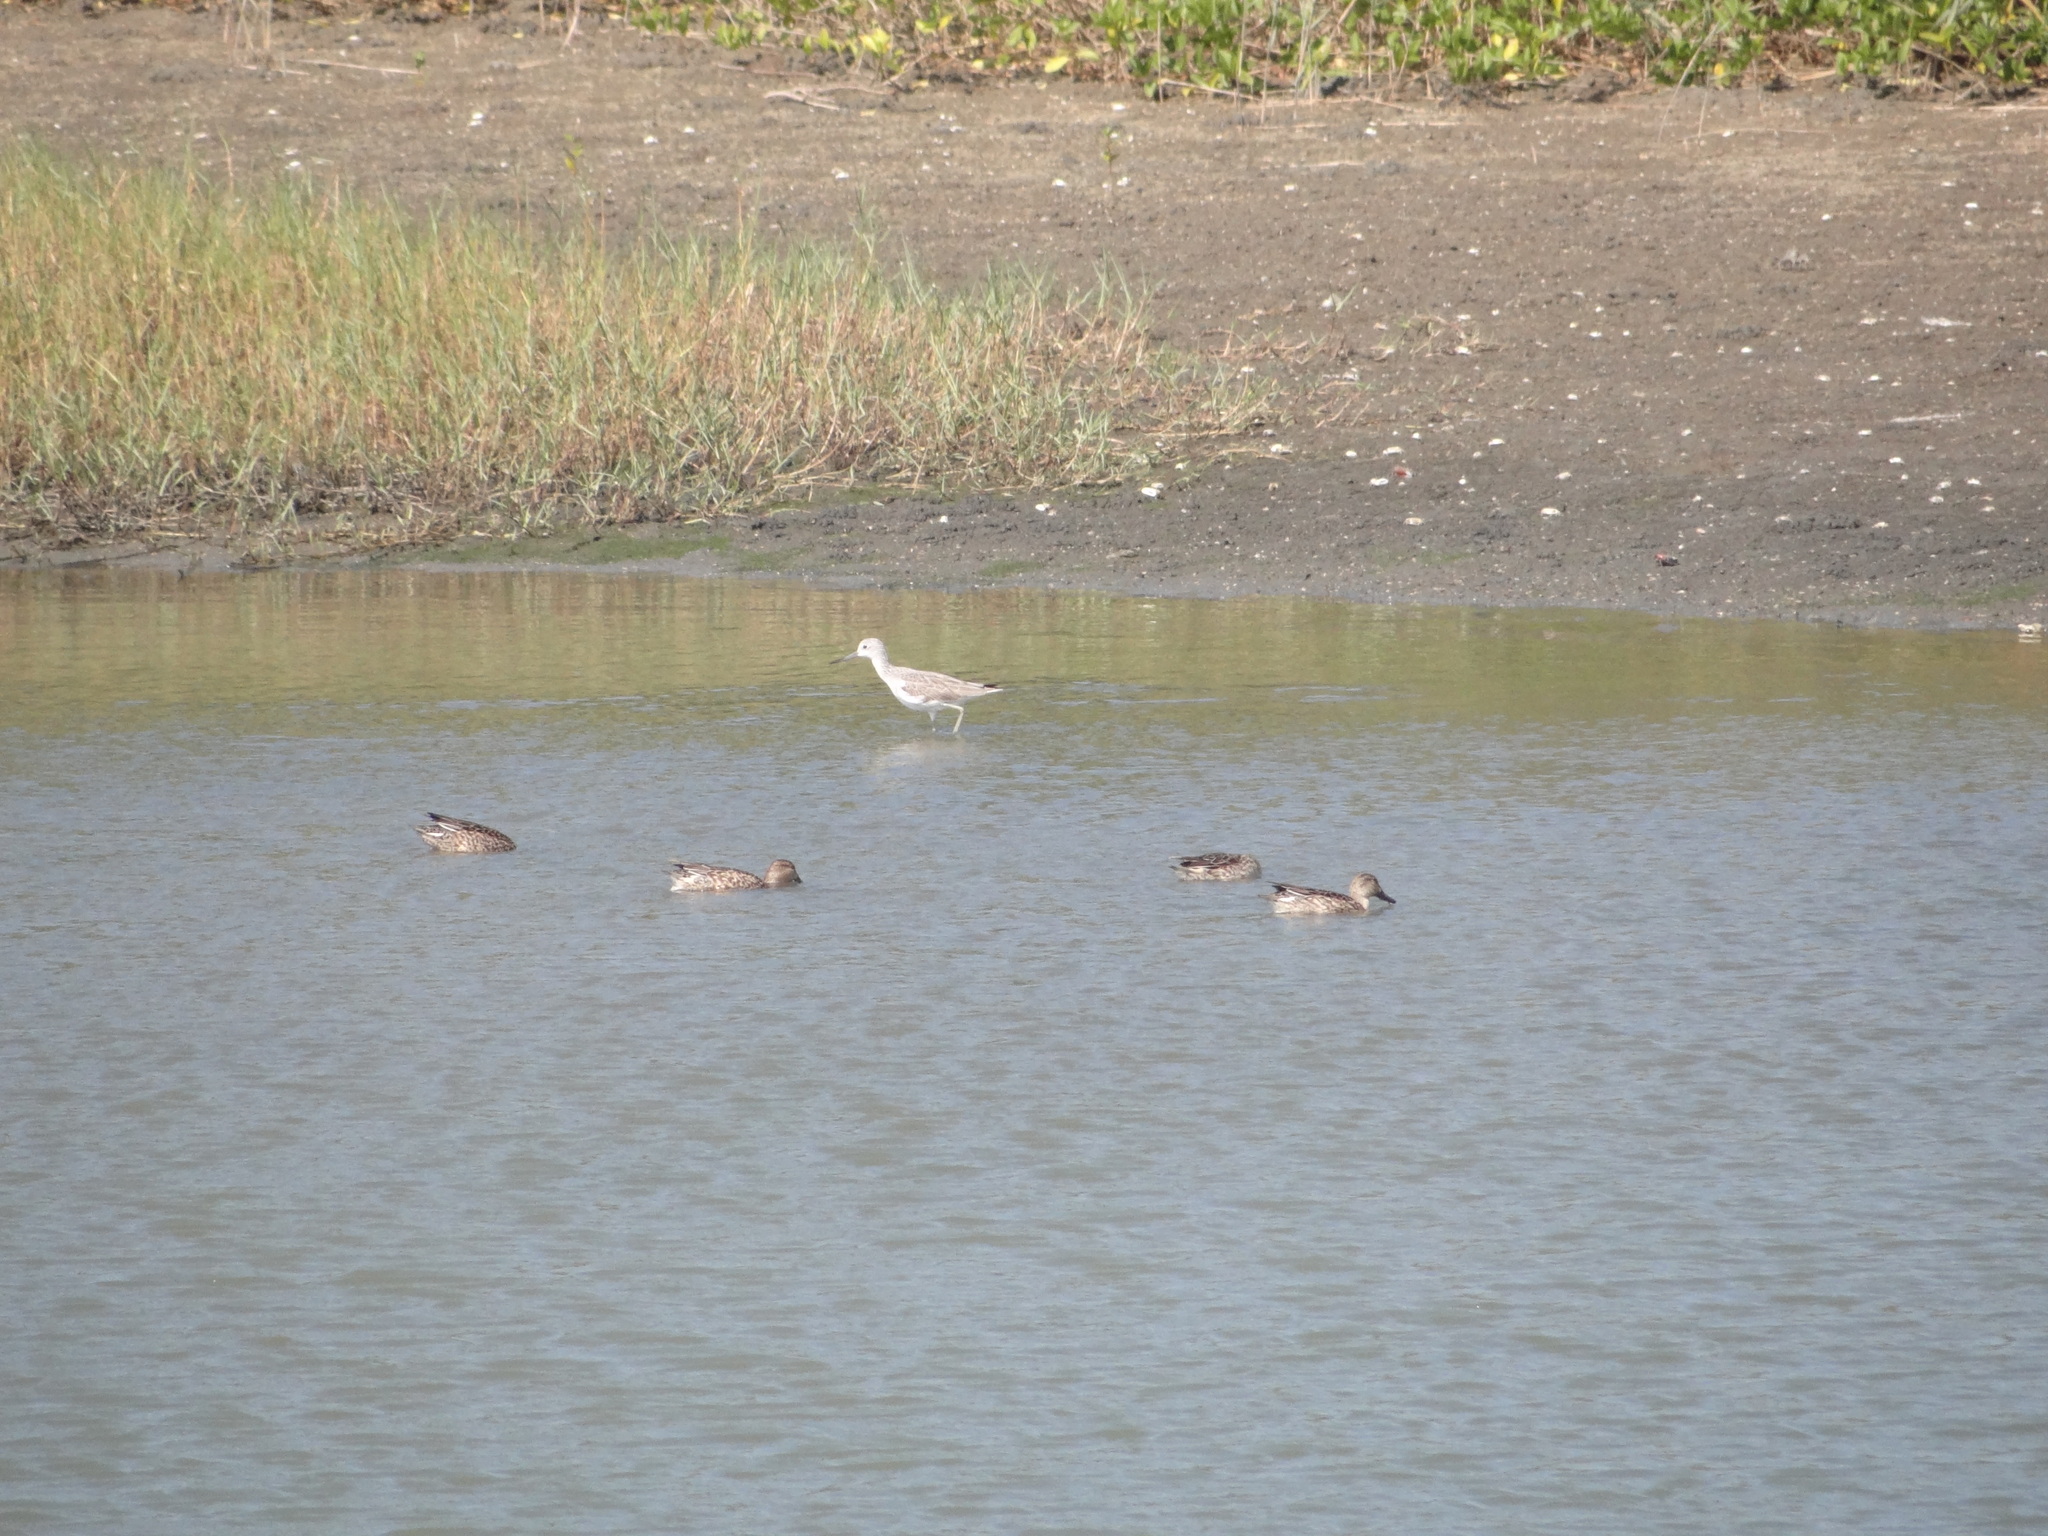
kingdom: Animalia
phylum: Chordata
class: Aves
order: Charadriiformes
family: Scolopacidae
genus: Tringa
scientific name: Tringa nebularia
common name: Common greenshank
